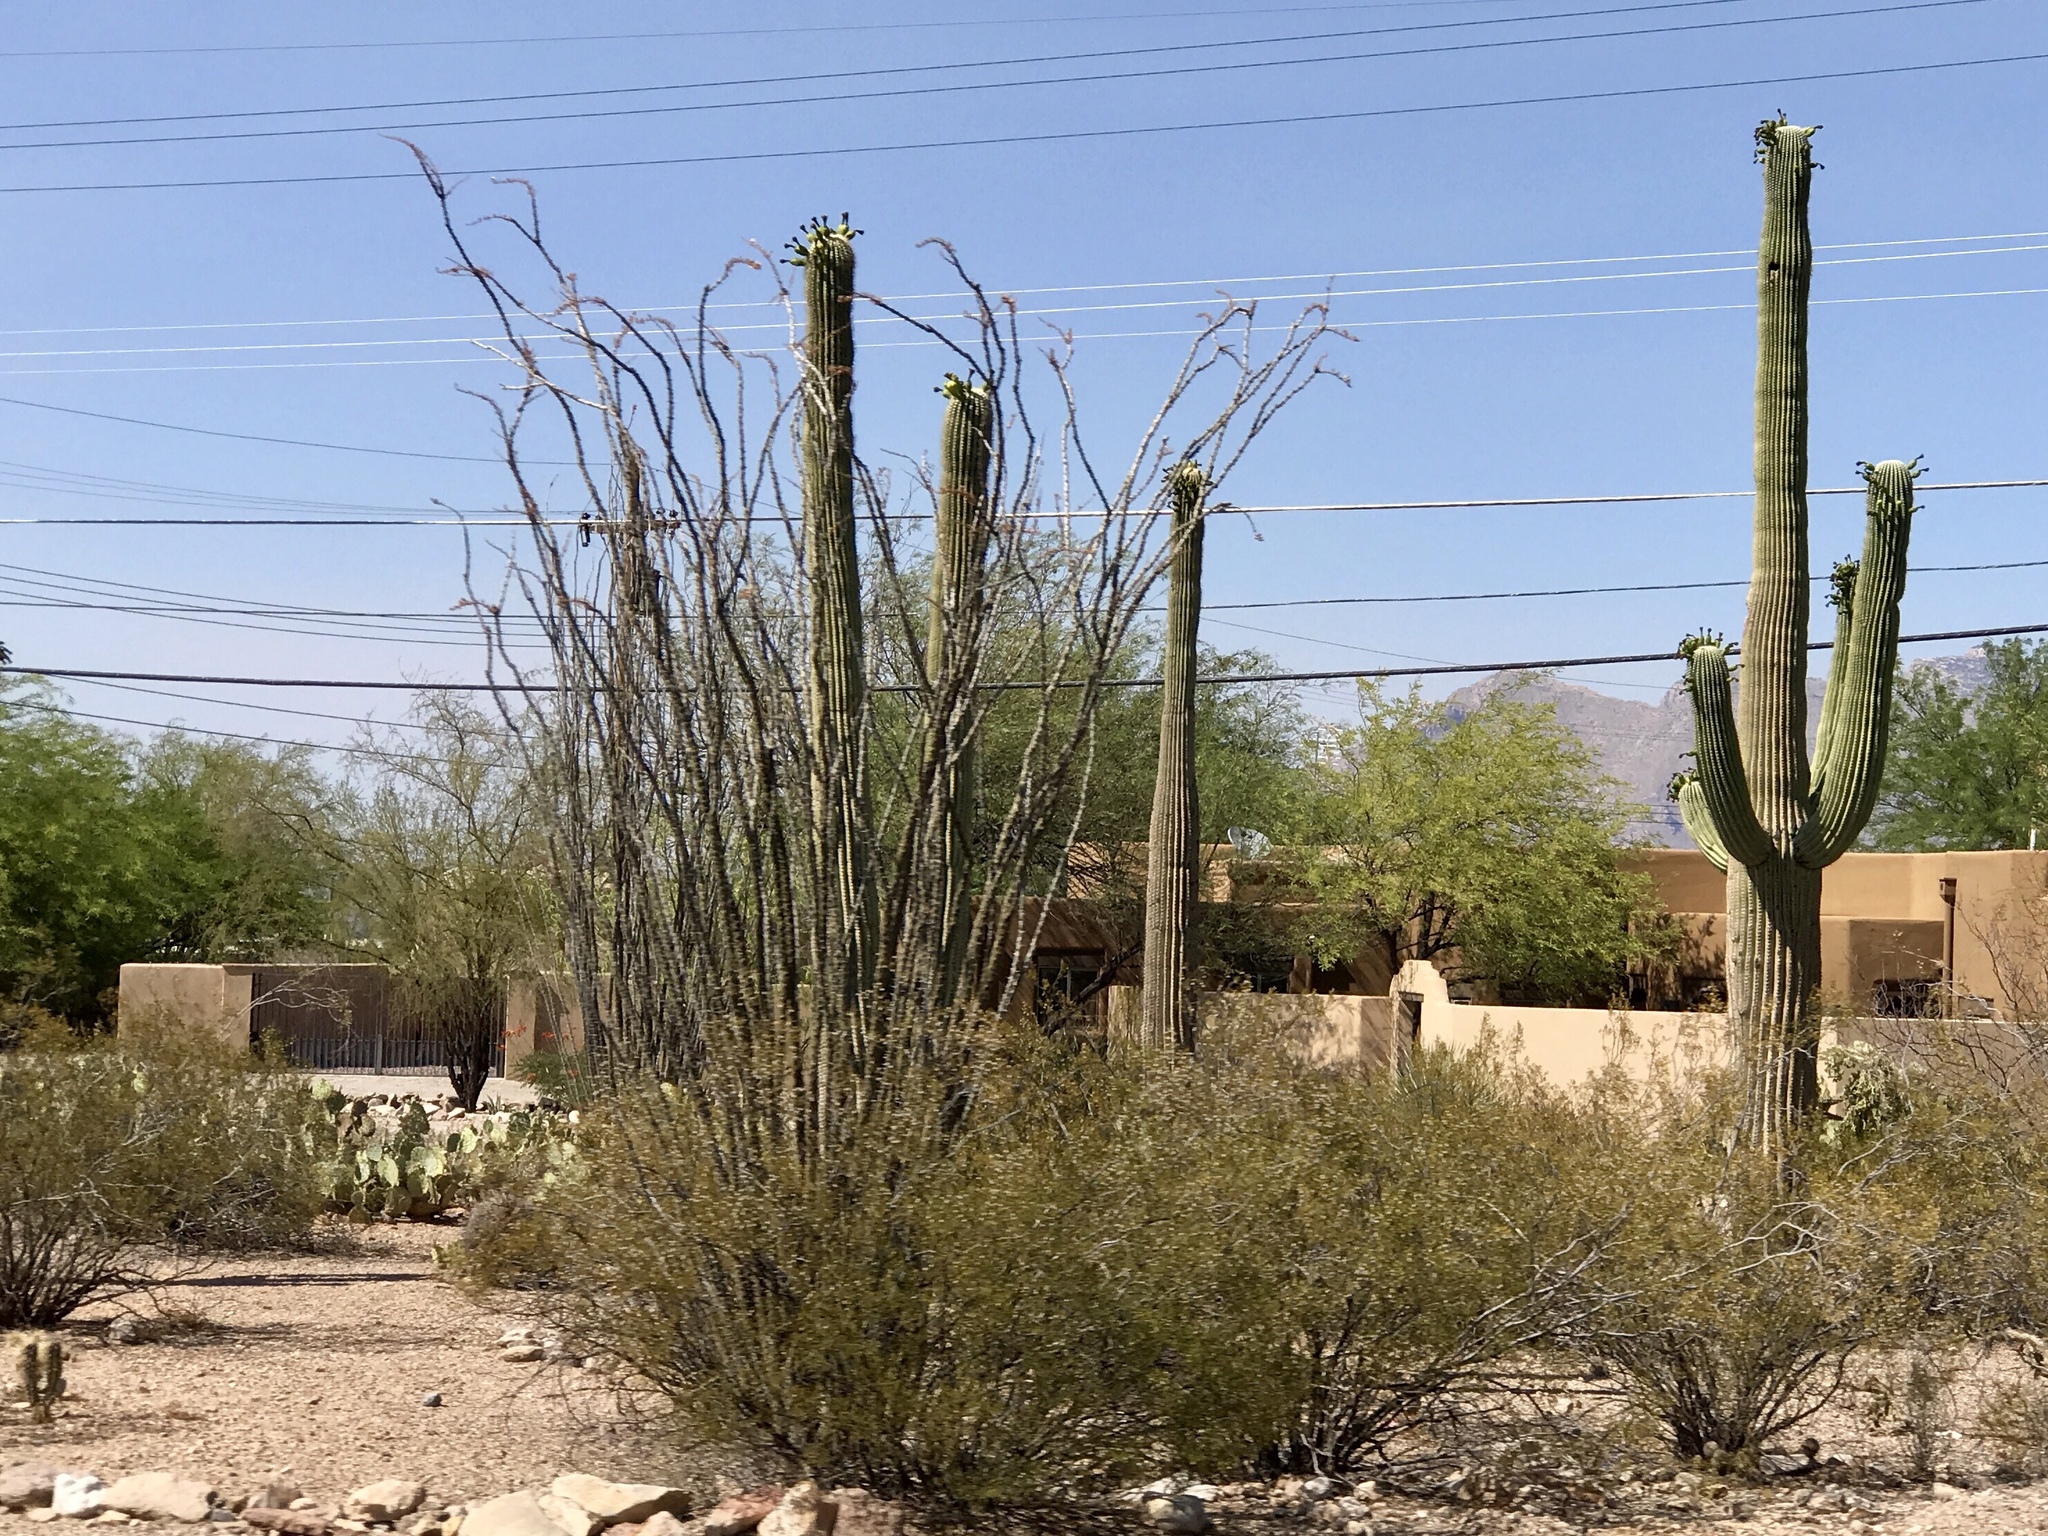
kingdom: Plantae
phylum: Tracheophyta
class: Magnoliopsida
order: Ericales
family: Fouquieriaceae
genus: Fouquieria
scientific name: Fouquieria splendens
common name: Vine-cactus
